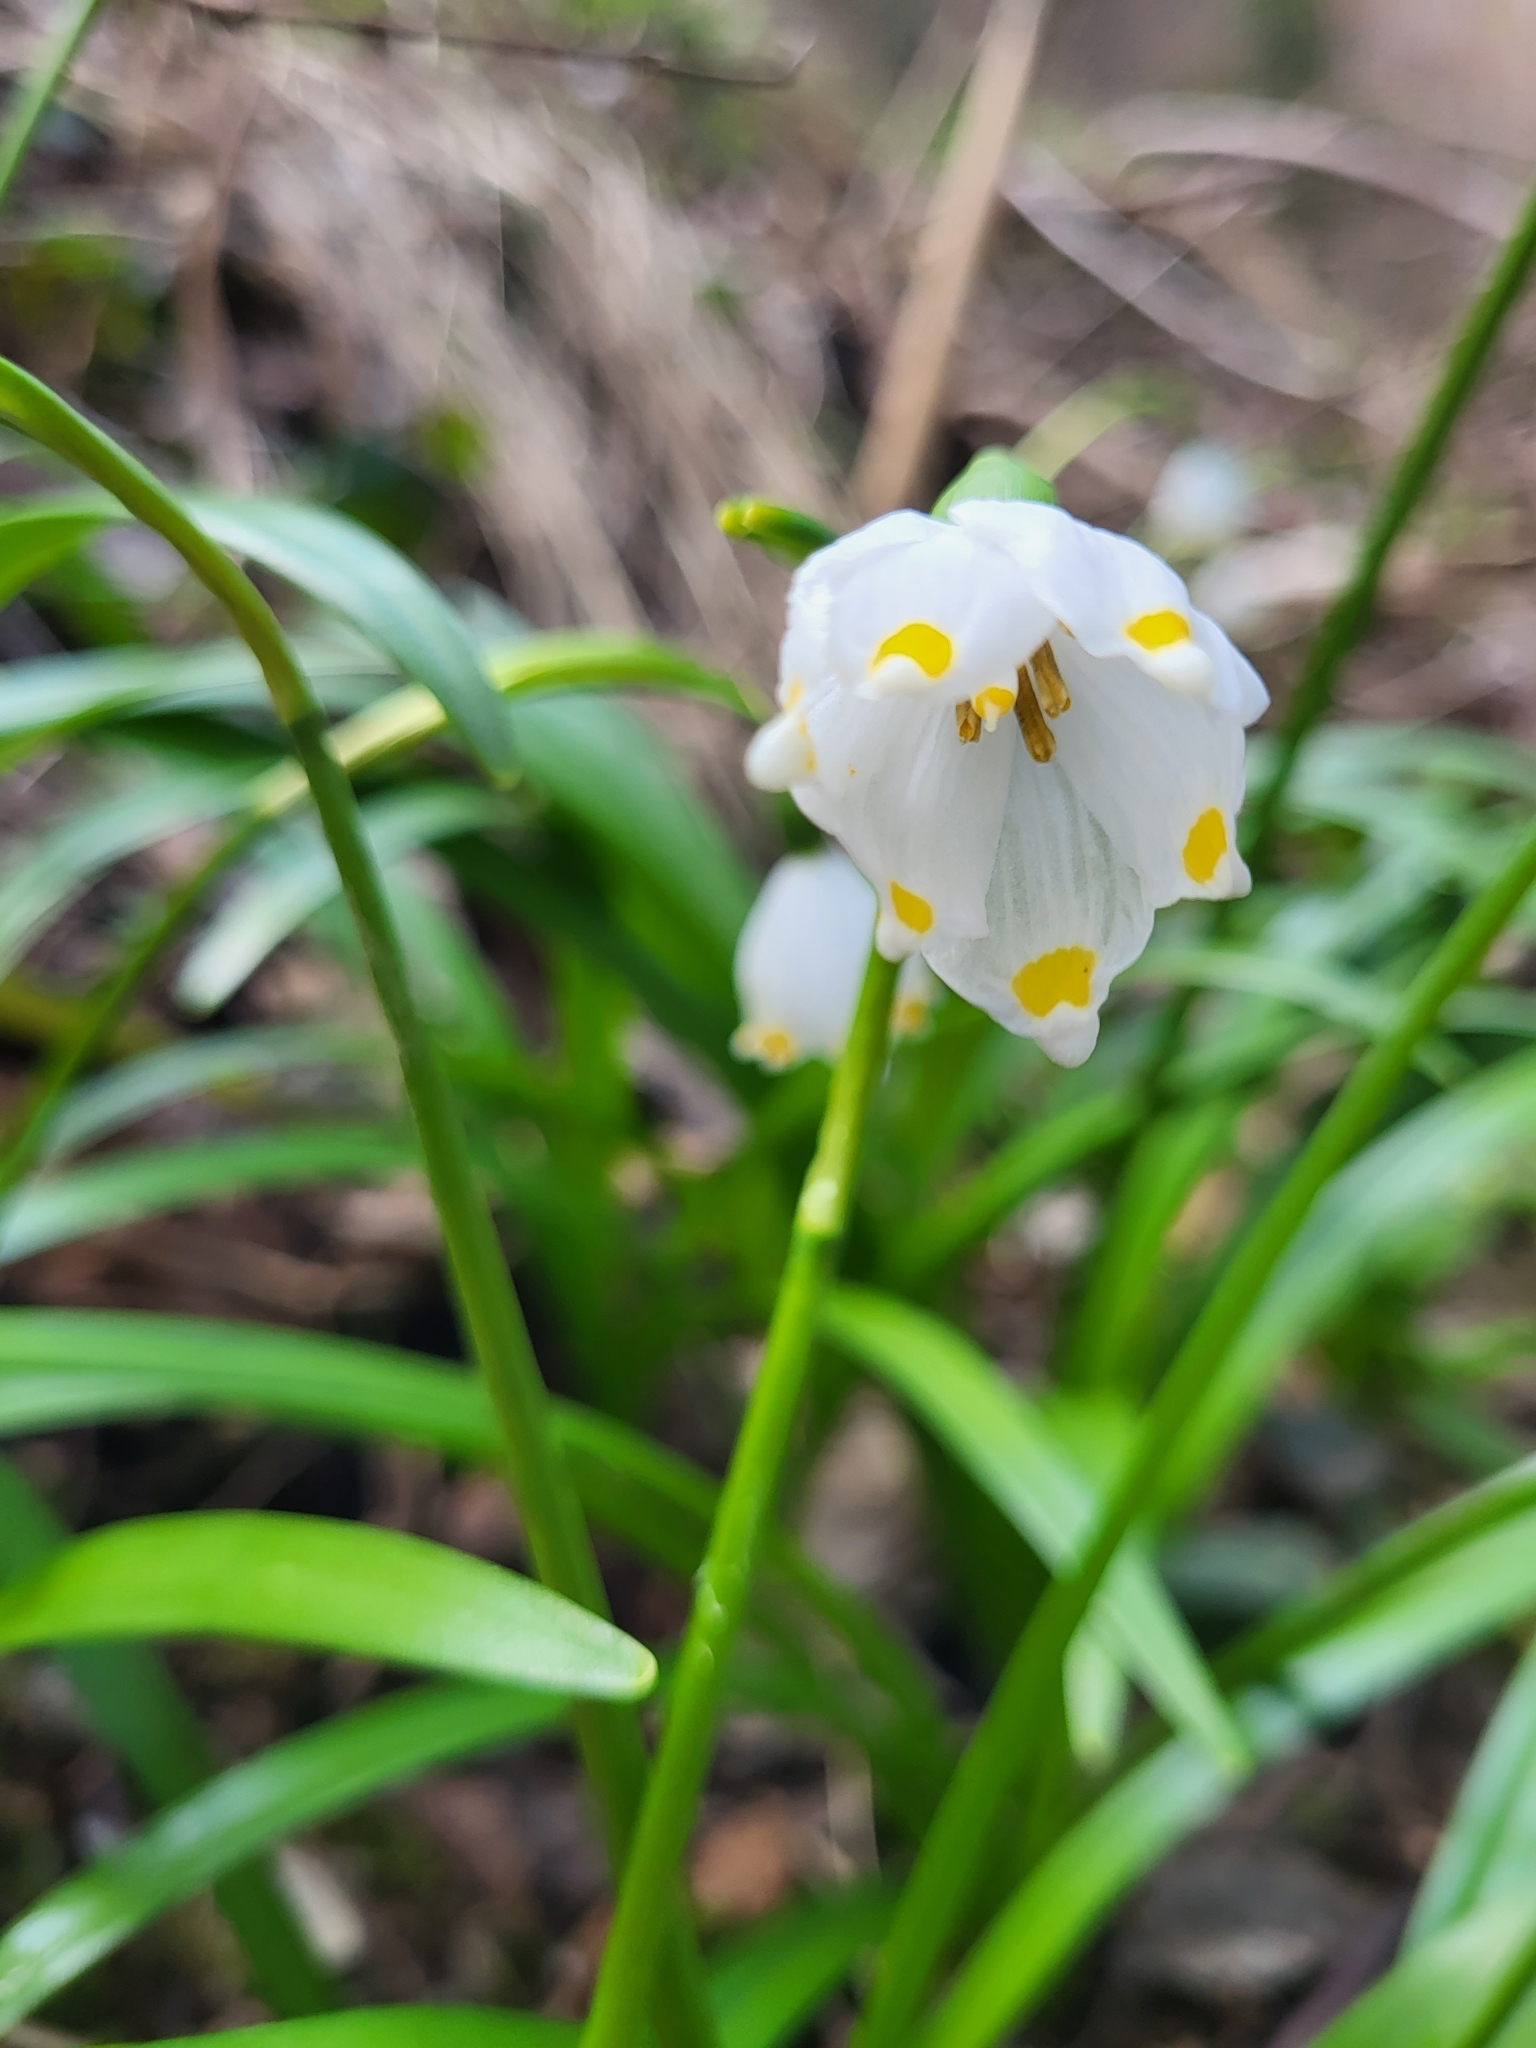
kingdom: Plantae
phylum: Tracheophyta
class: Liliopsida
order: Asparagales
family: Amaryllidaceae
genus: Leucojum
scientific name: Leucojum vernum
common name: Spring snowflake
